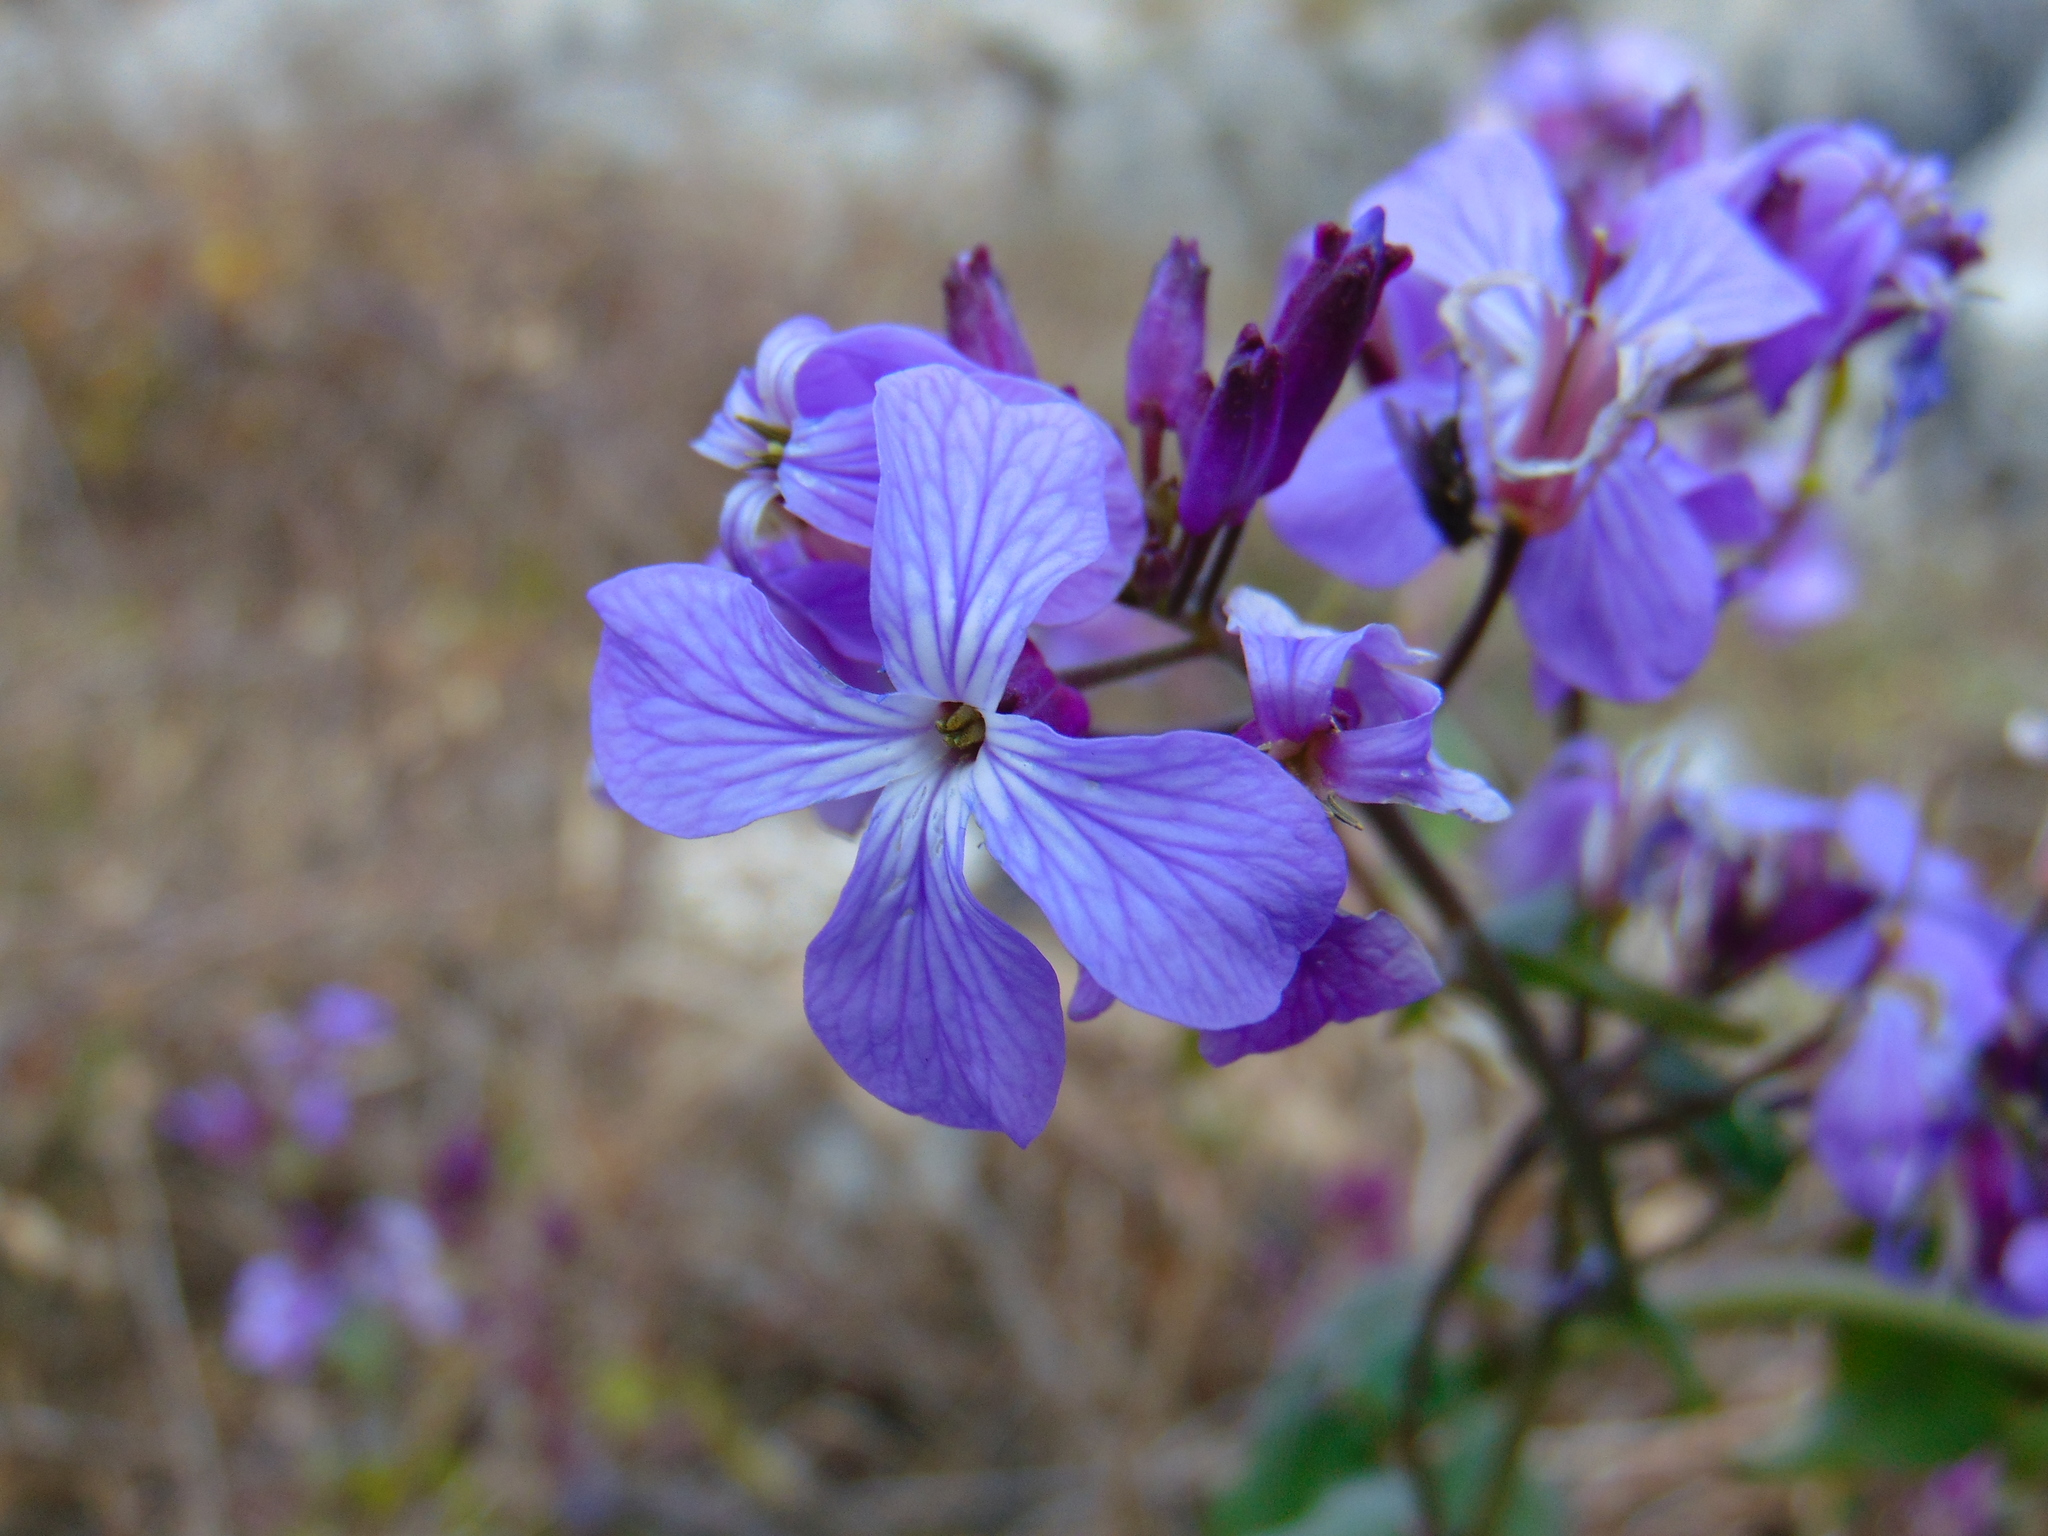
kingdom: Plantae
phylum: Tracheophyta
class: Magnoliopsida
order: Brassicales
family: Brassicaceae
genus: Lunaria
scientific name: Lunaria annua
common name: Honesty
